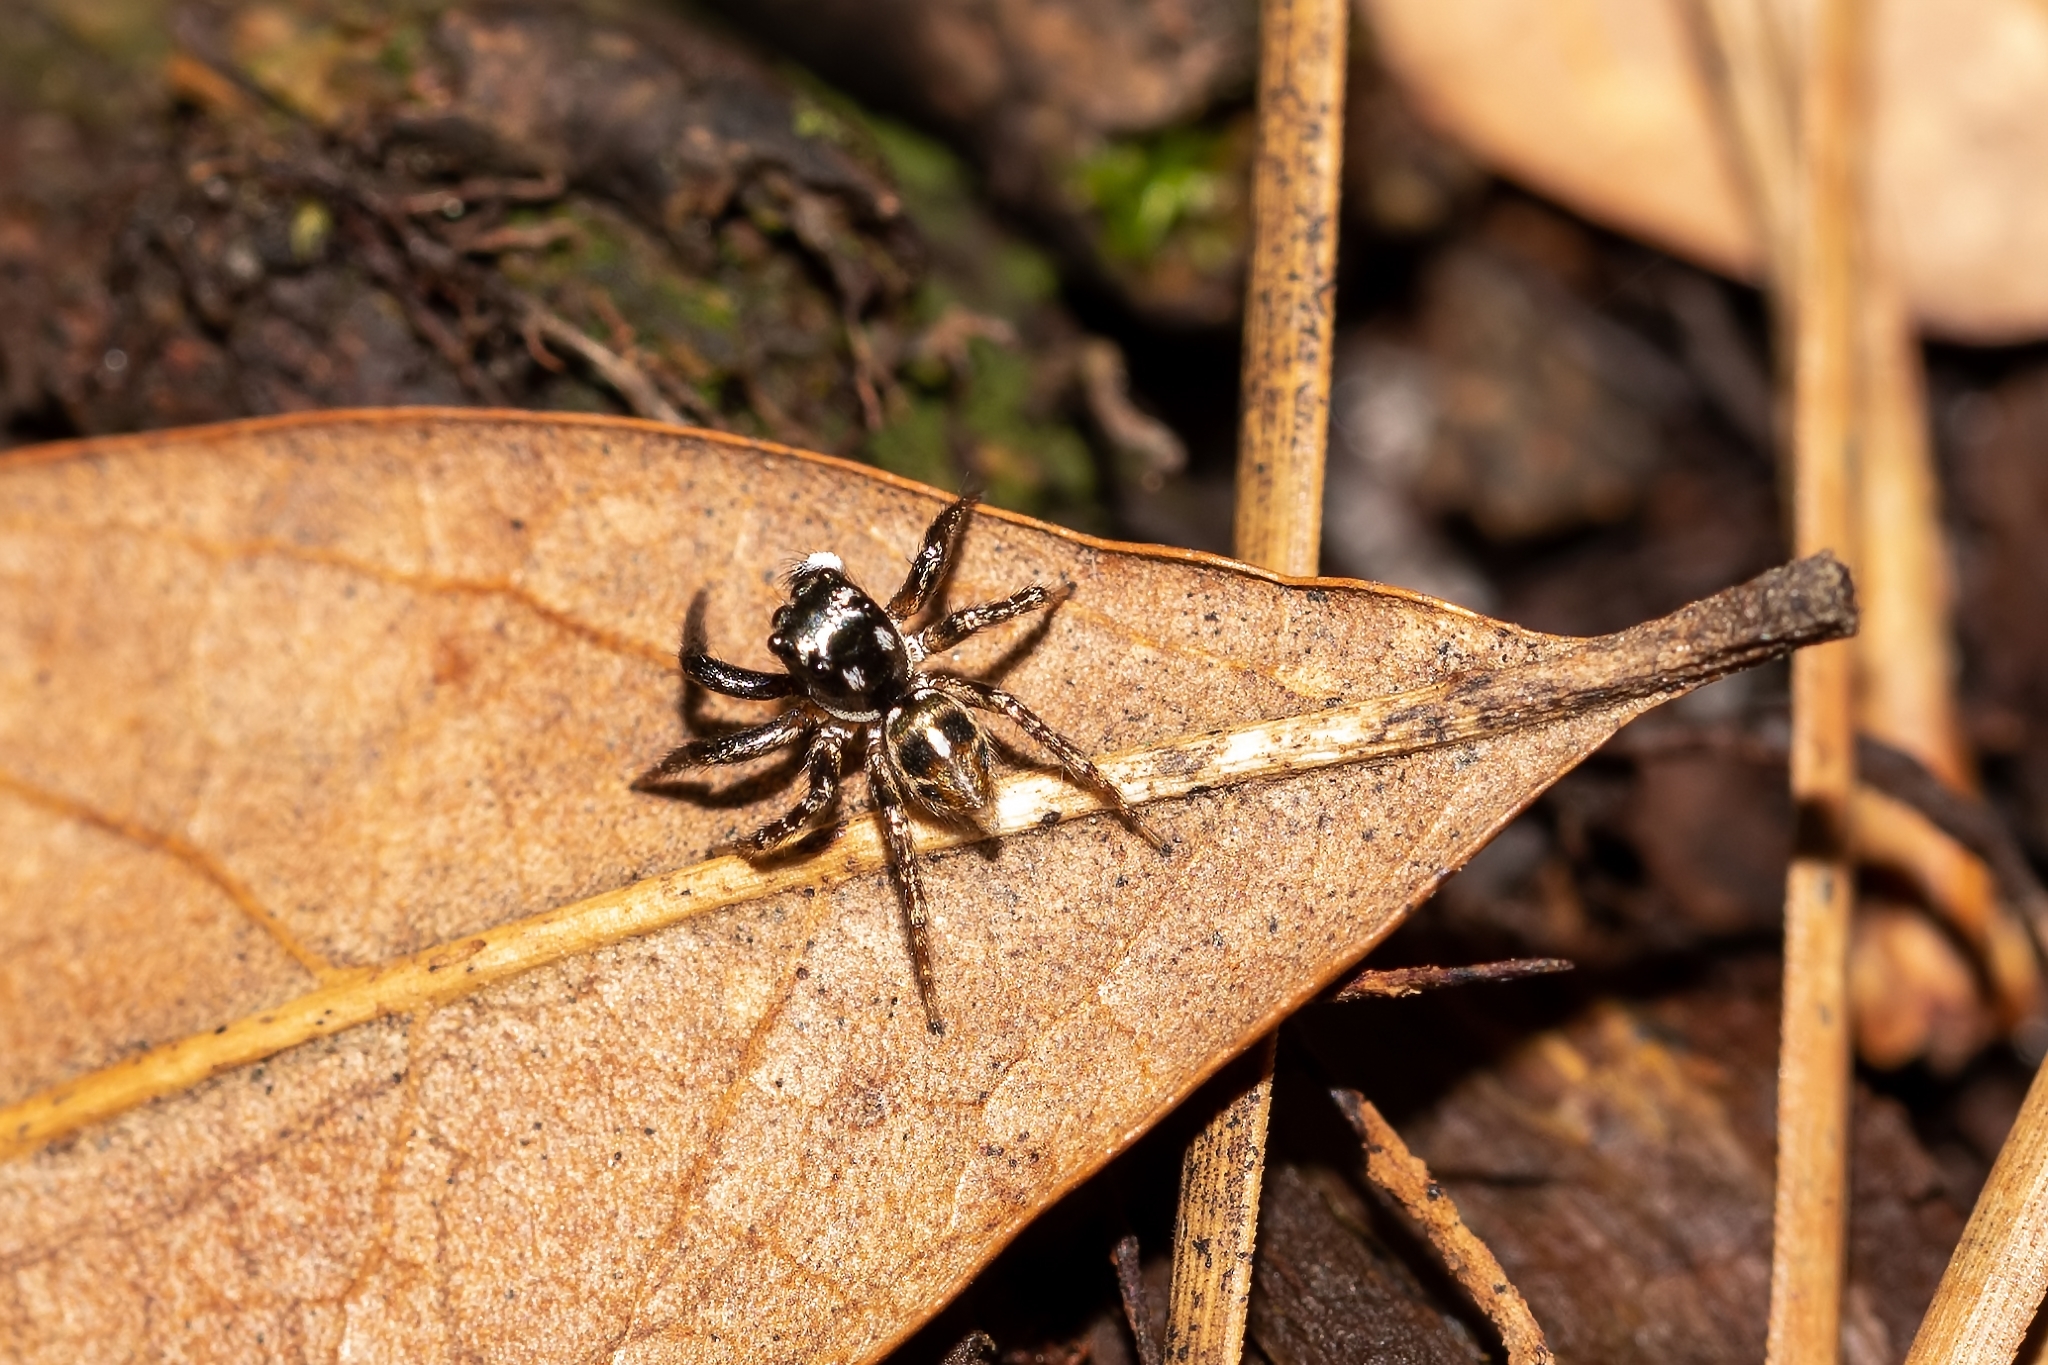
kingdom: Animalia
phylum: Arthropoda
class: Arachnida
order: Araneae
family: Salticidae
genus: Anasaitis
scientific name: Anasaitis canosa
